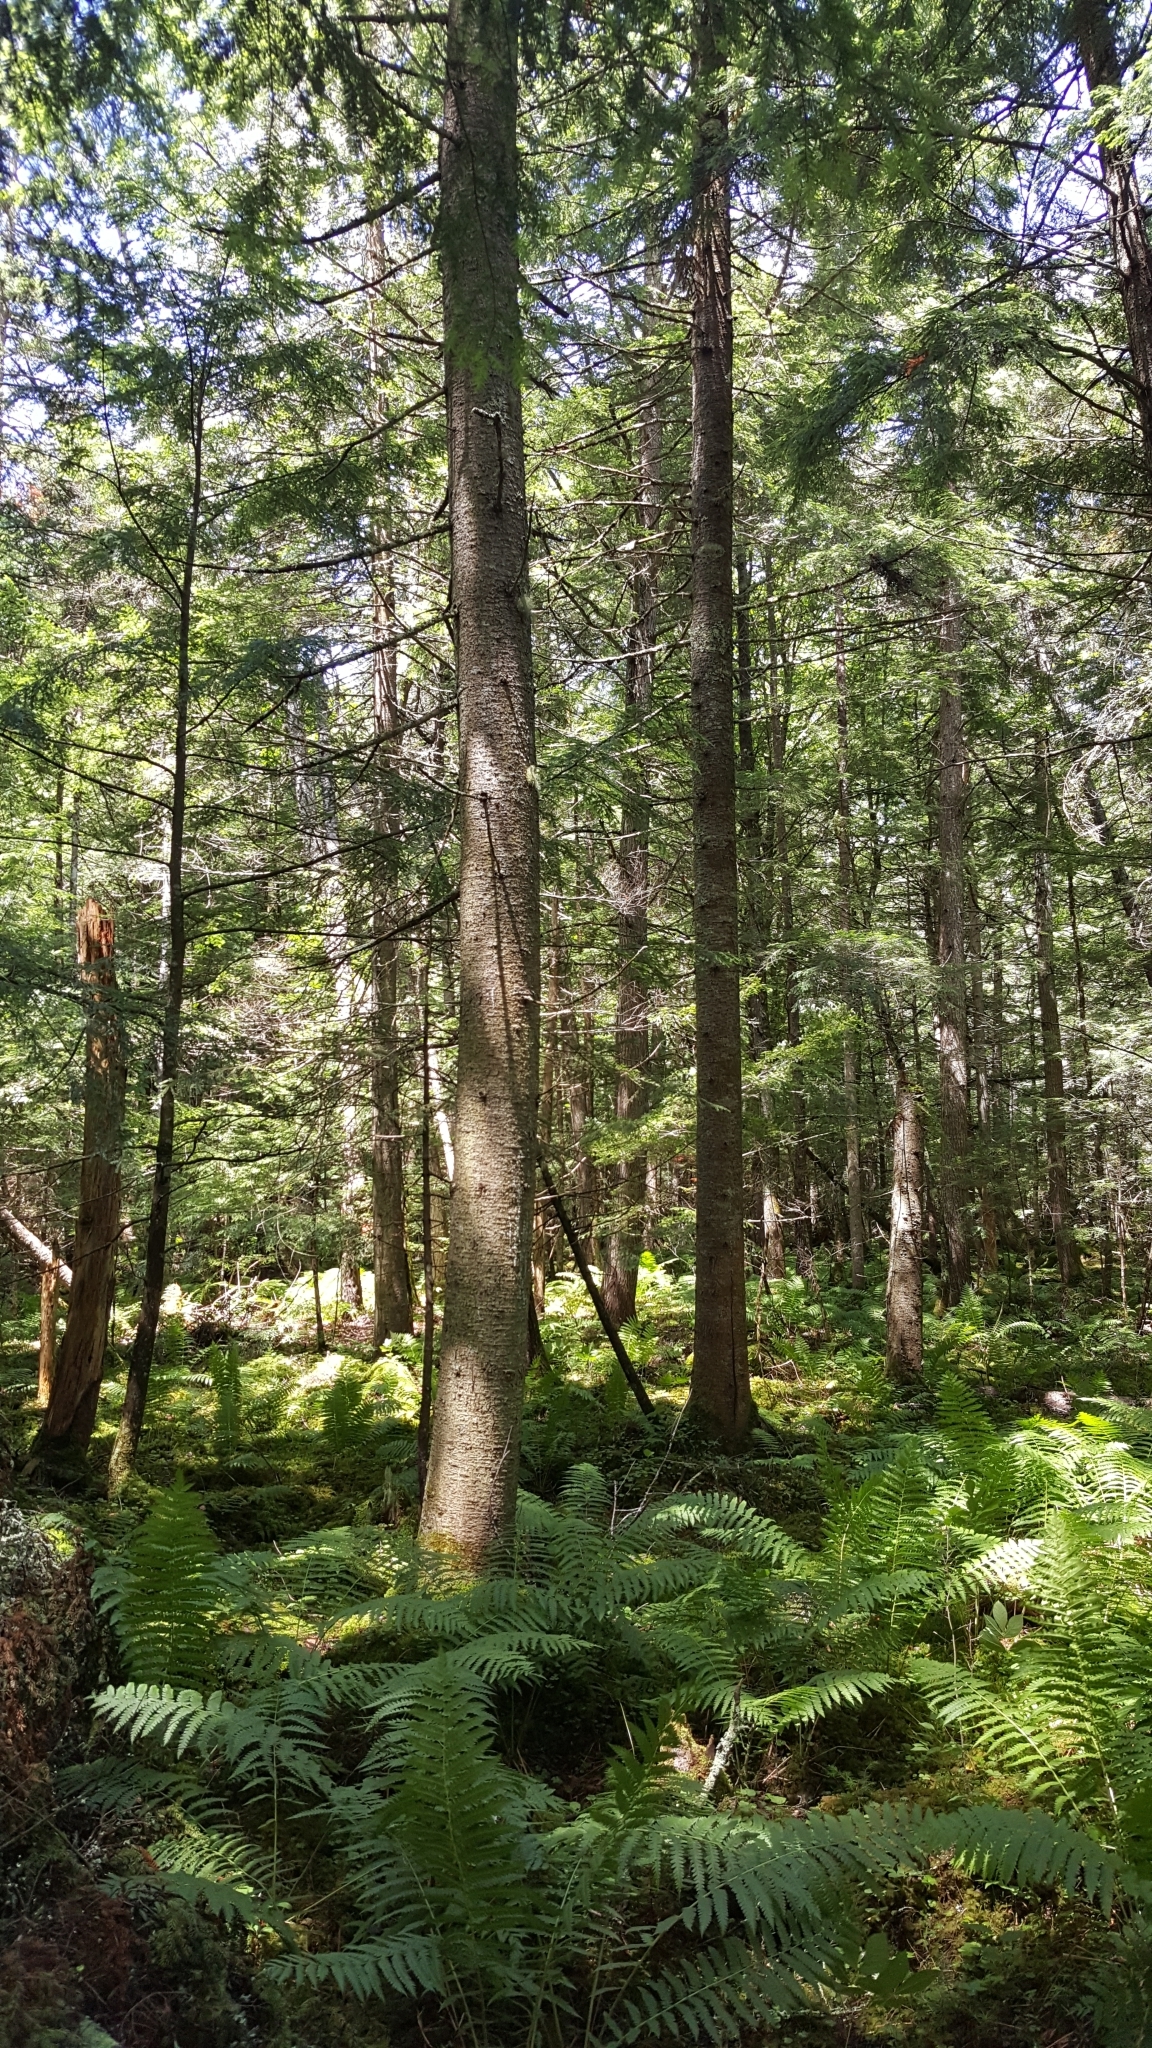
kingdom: Plantae
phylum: Tracheophyta
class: Pinopsida
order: Pinales
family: Pinaceae
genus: Abies
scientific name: Abies balsamea
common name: Balsam fir
